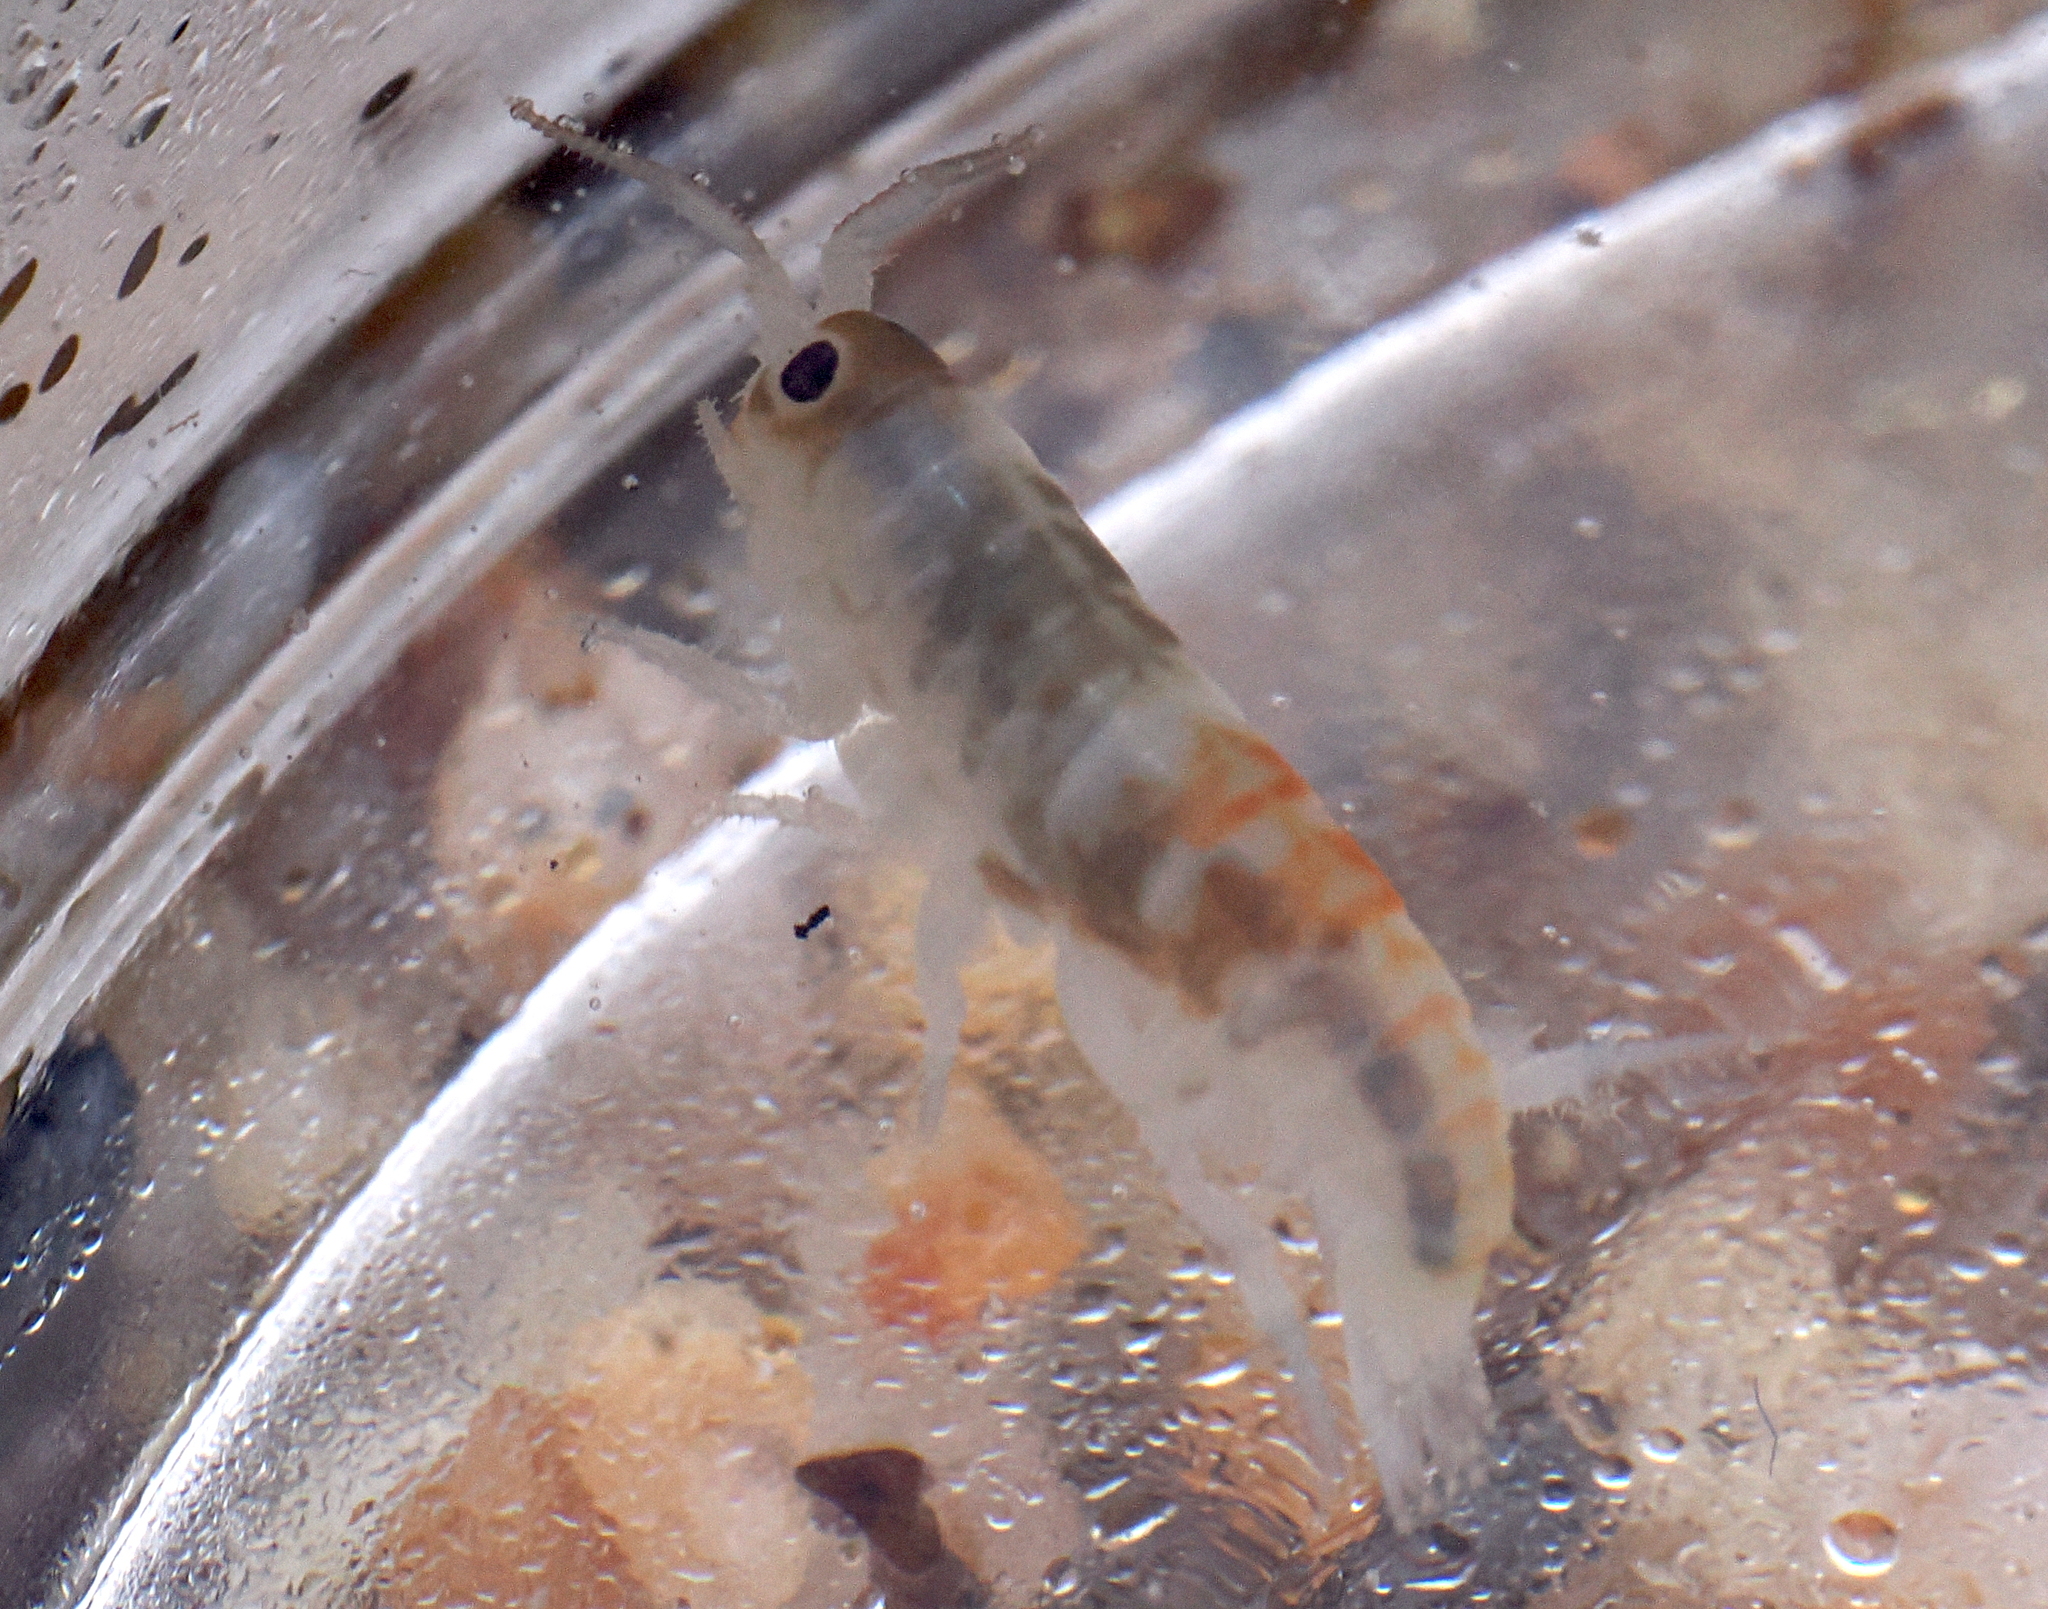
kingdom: Animalia
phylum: Arthropoda
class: Malacostraca
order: Amphipoda
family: Talitridae
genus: Megalorchestia
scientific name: Megalorchestia pugettensis
